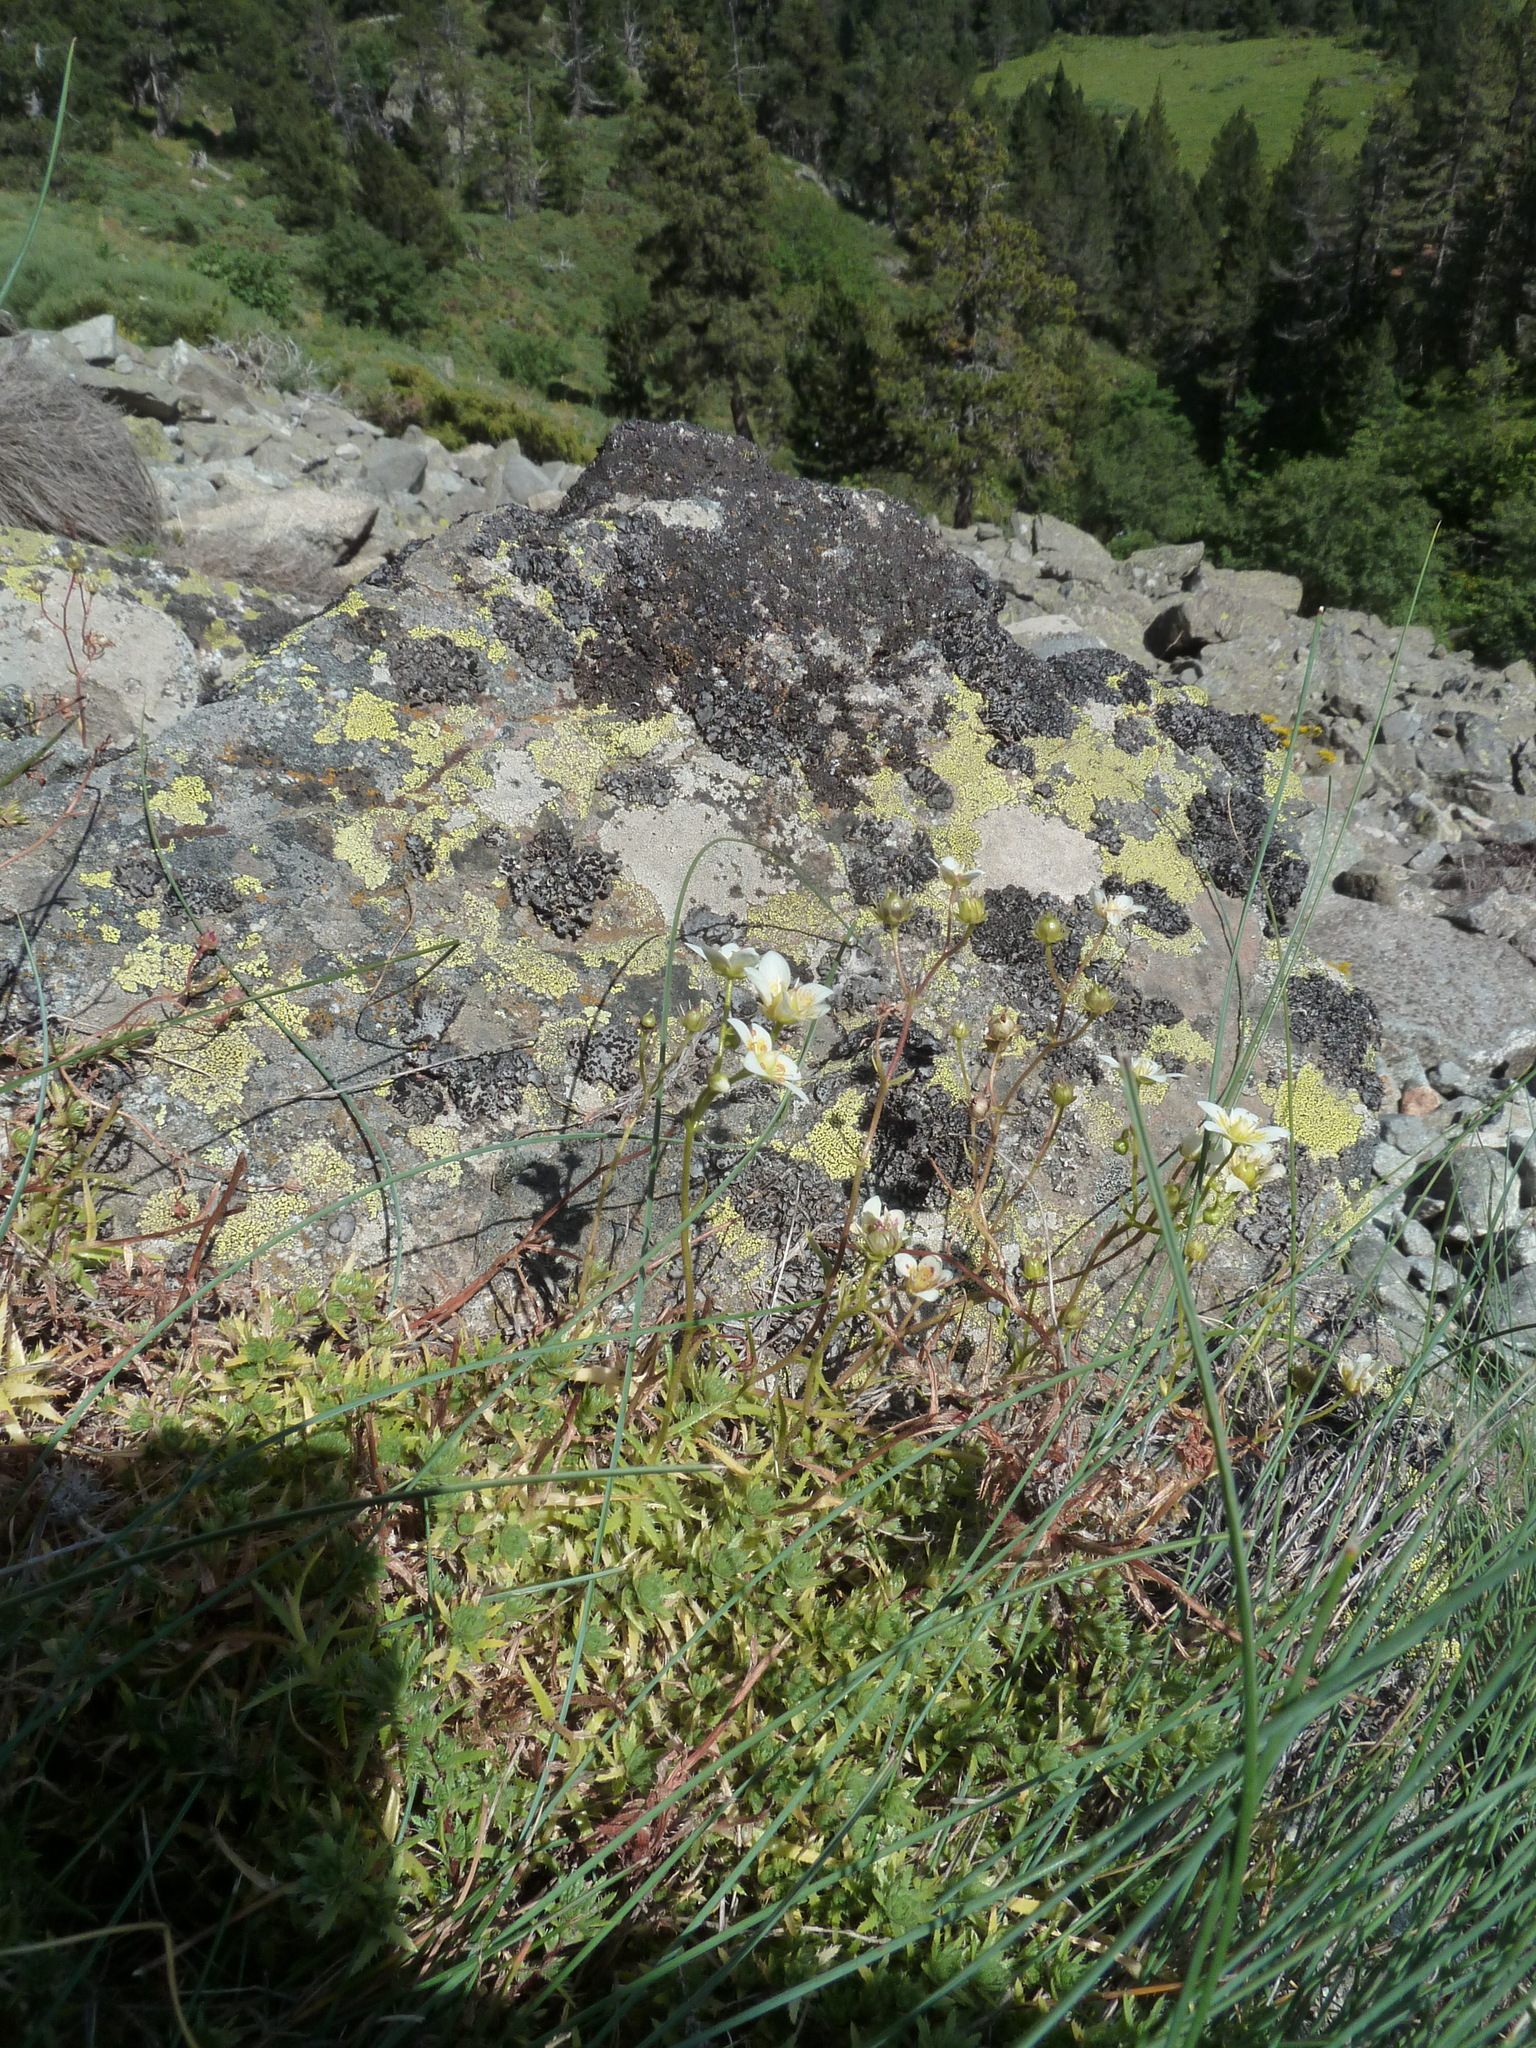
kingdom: Plantae
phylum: Tracheophyta
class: Magnoliopsida
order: Saxifragales
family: Saxifragaceae
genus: Saxifraga
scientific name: Saxifraga aspera
